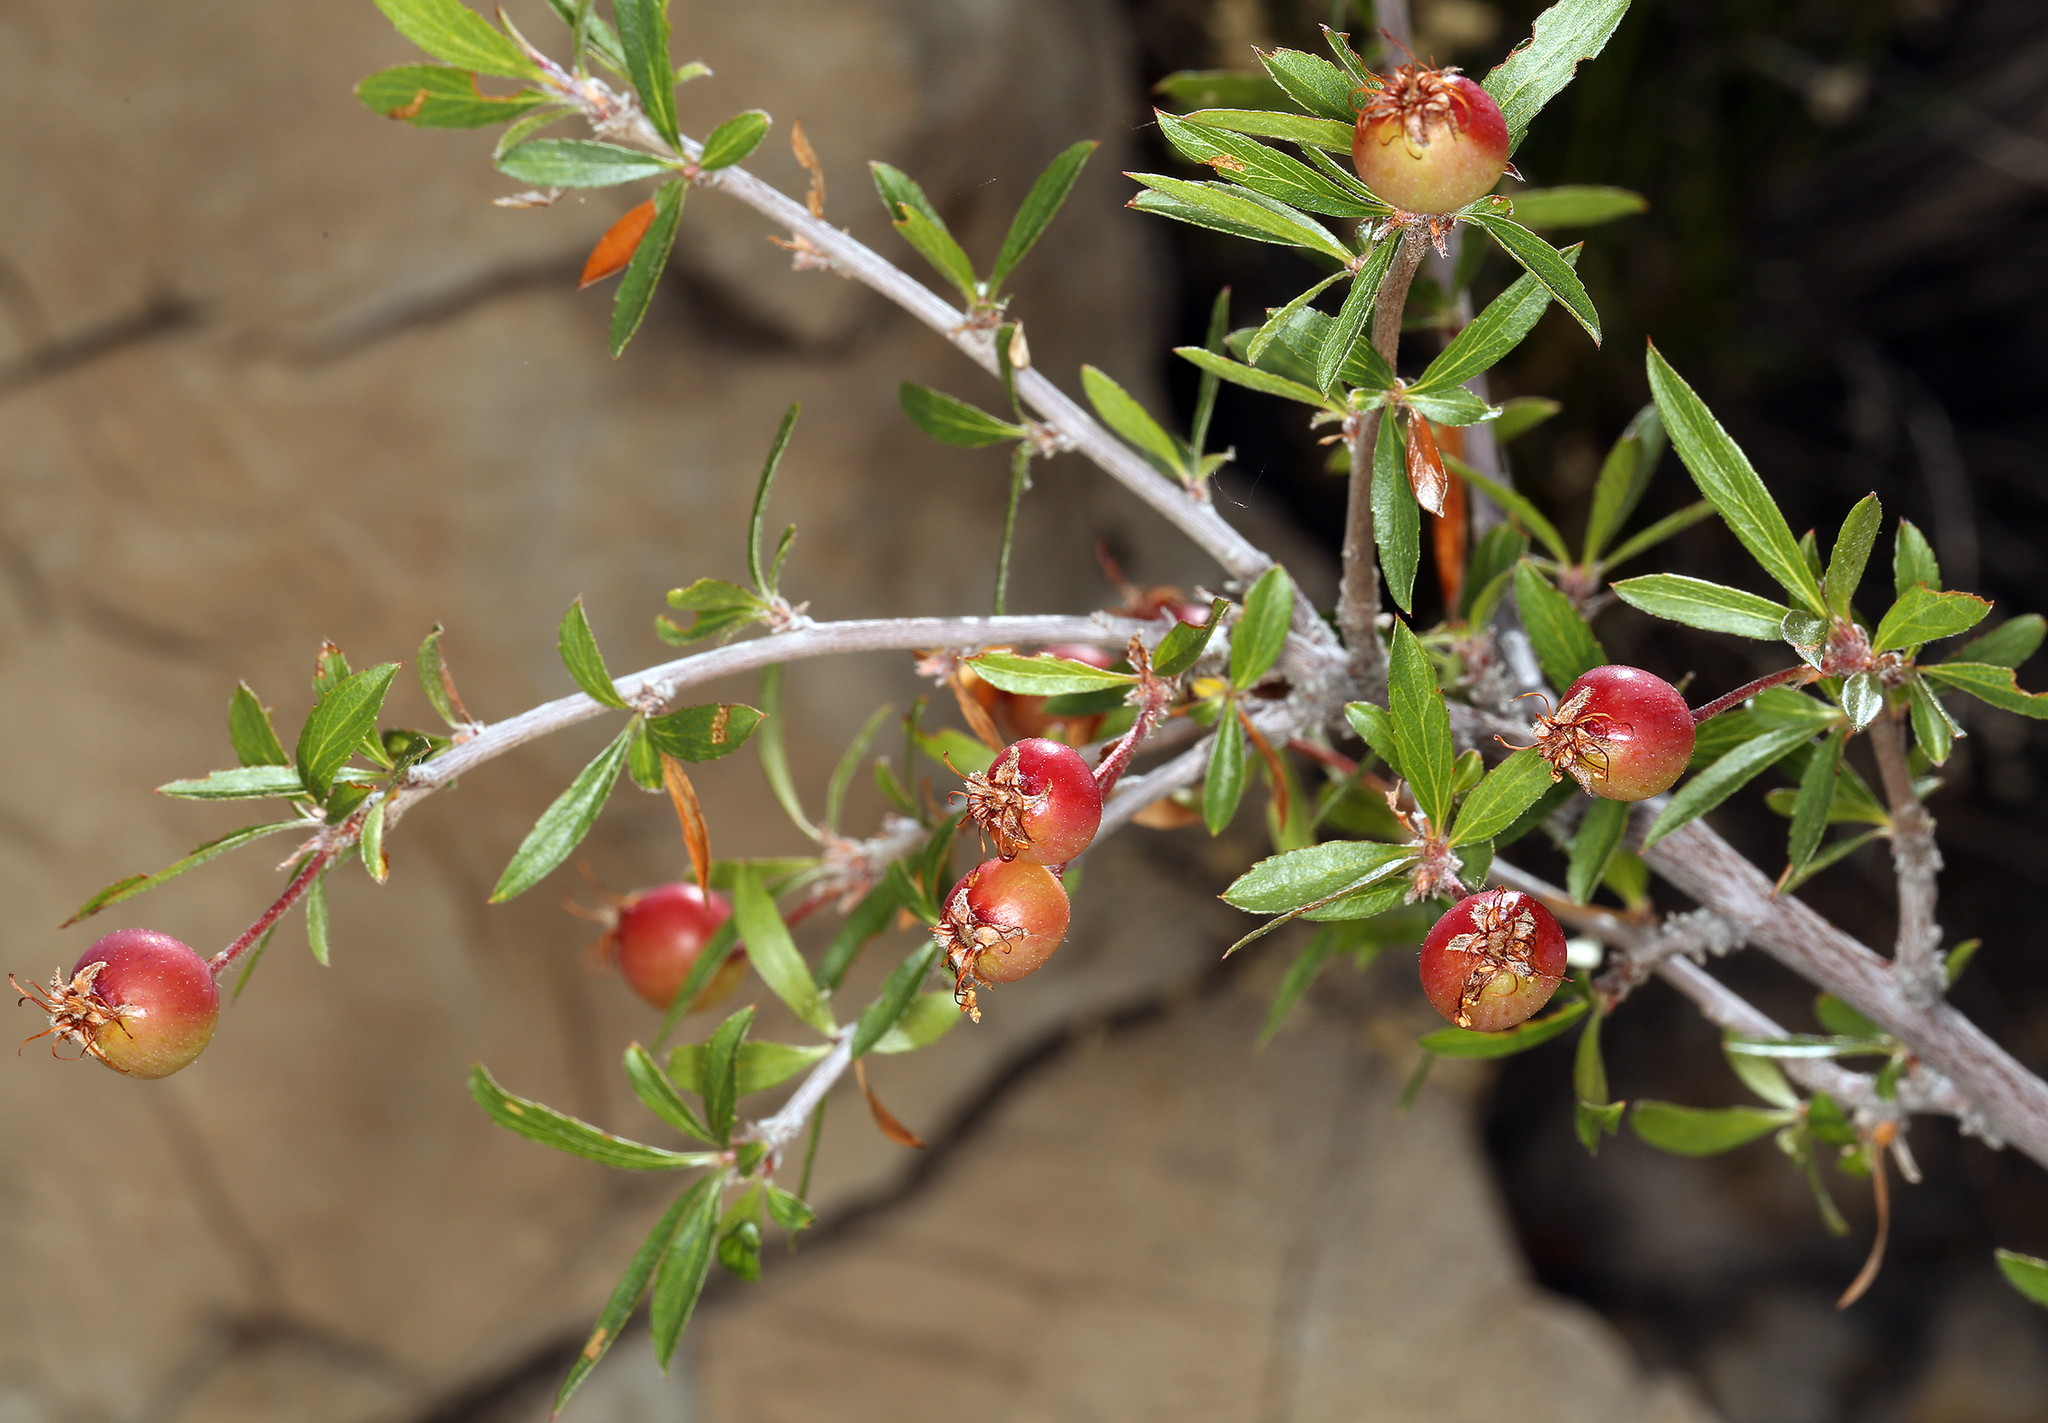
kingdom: Plantae
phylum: Tracheophyta
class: Magnoliopsida
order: Rosales
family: Rosaceae
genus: Amelanchier
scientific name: Amelanchier ramosissima
